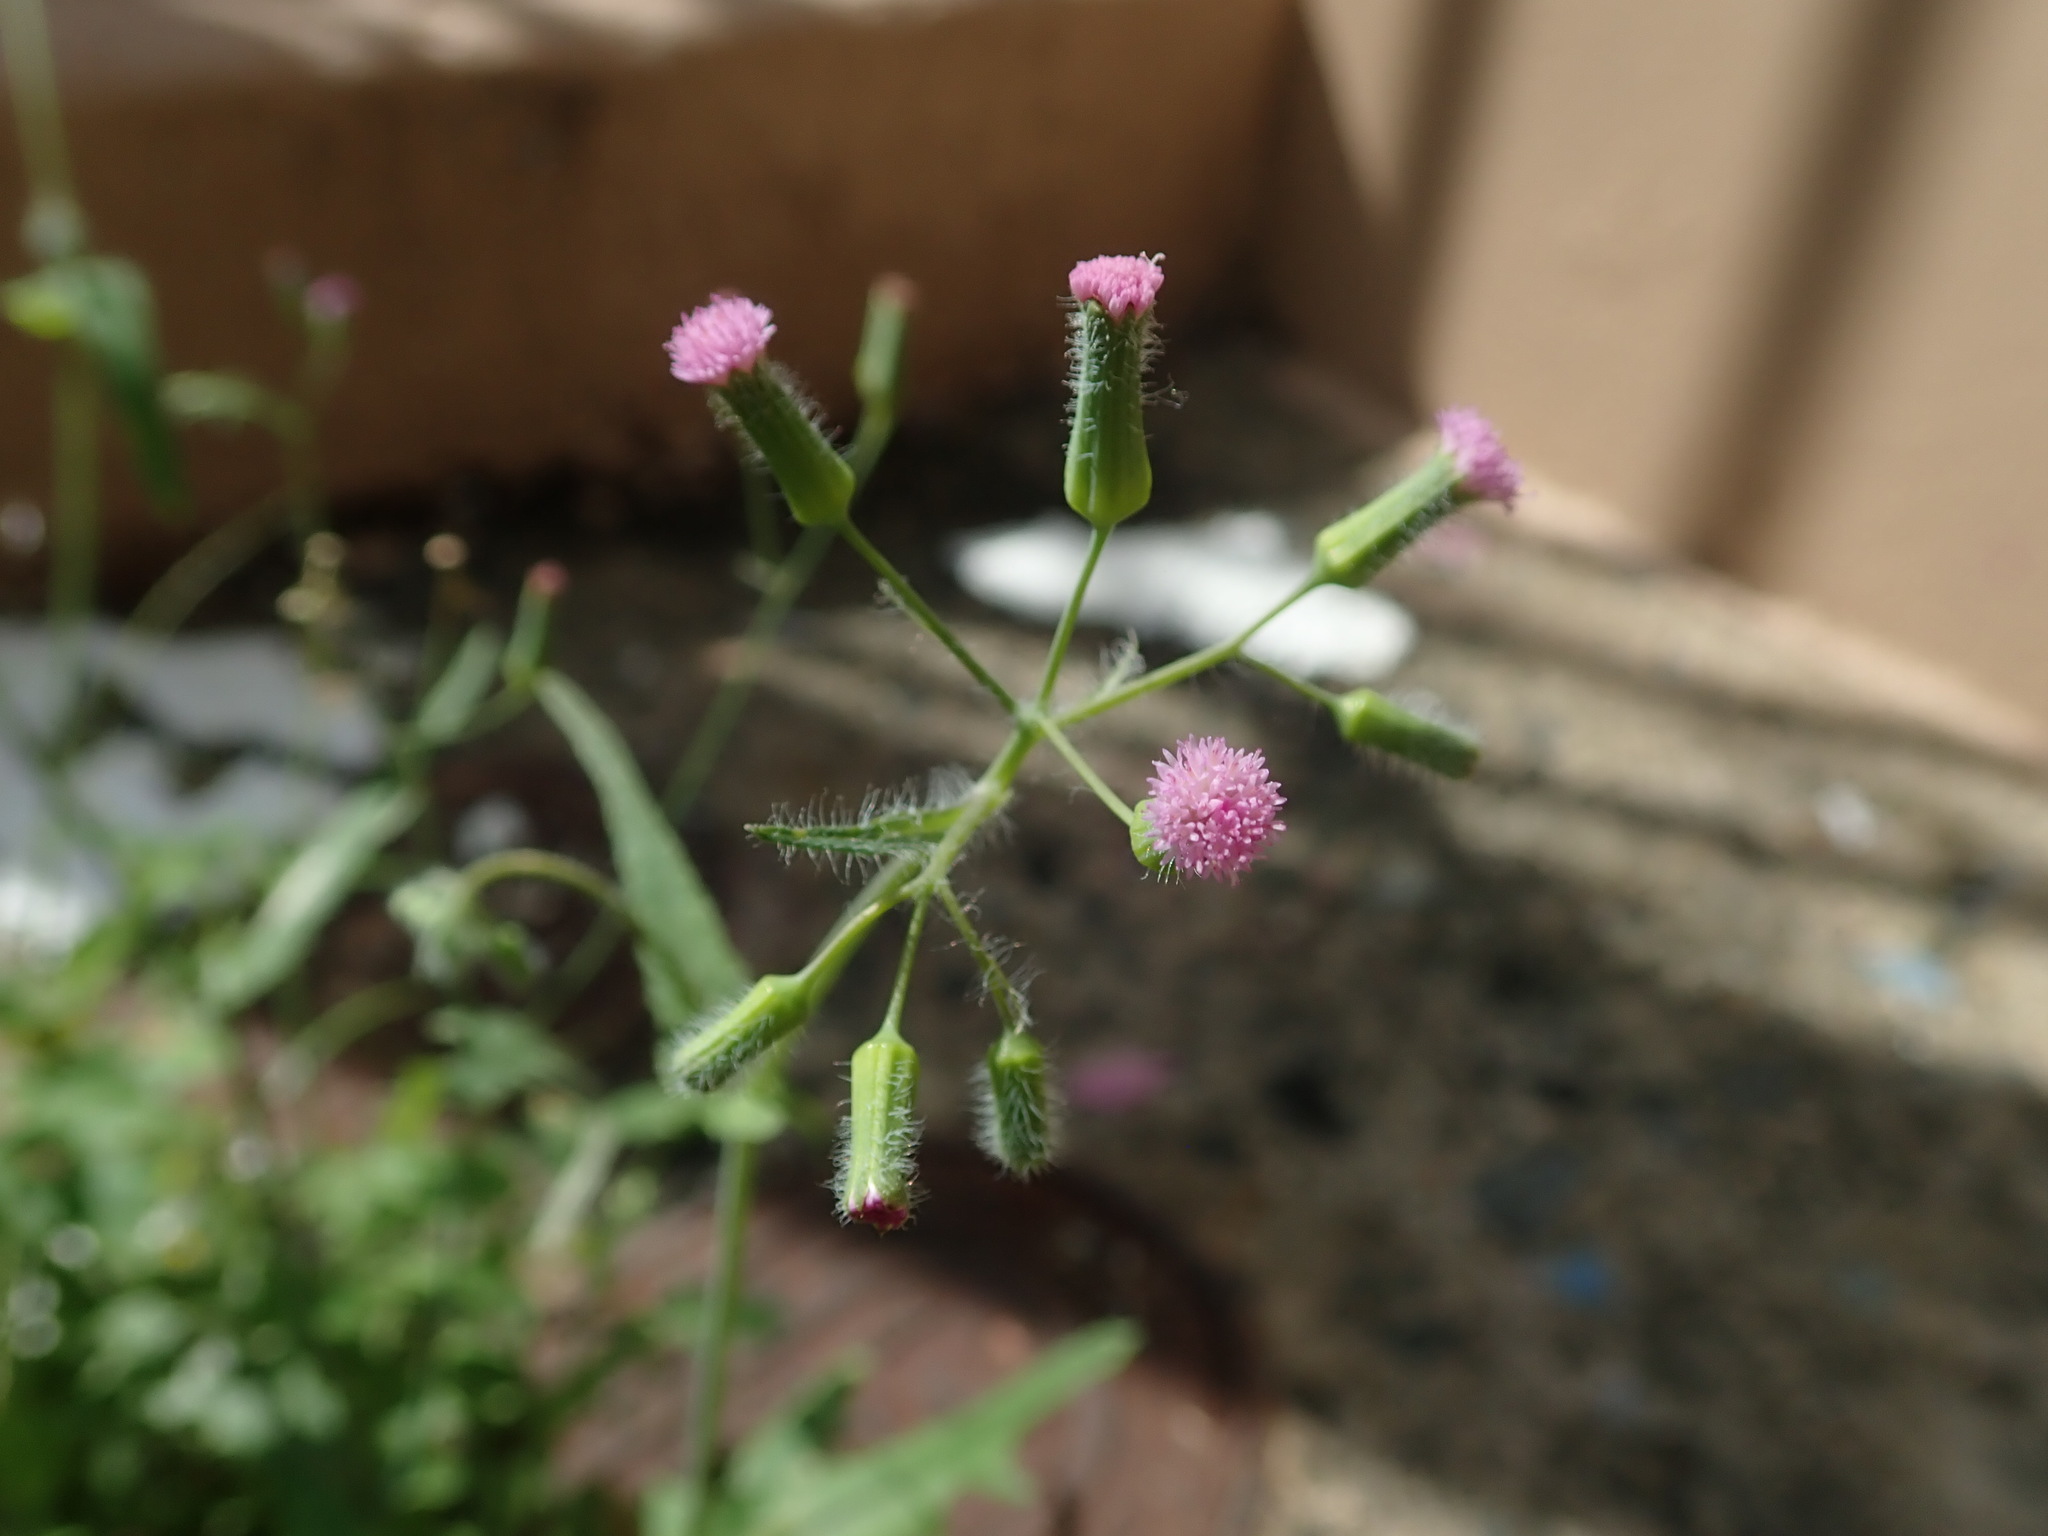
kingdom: Plantae
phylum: Tracheophyta
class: Magnoliopsida
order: Asterales
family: Asteraceae
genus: Emilia
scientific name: Emilia sonchifolia
